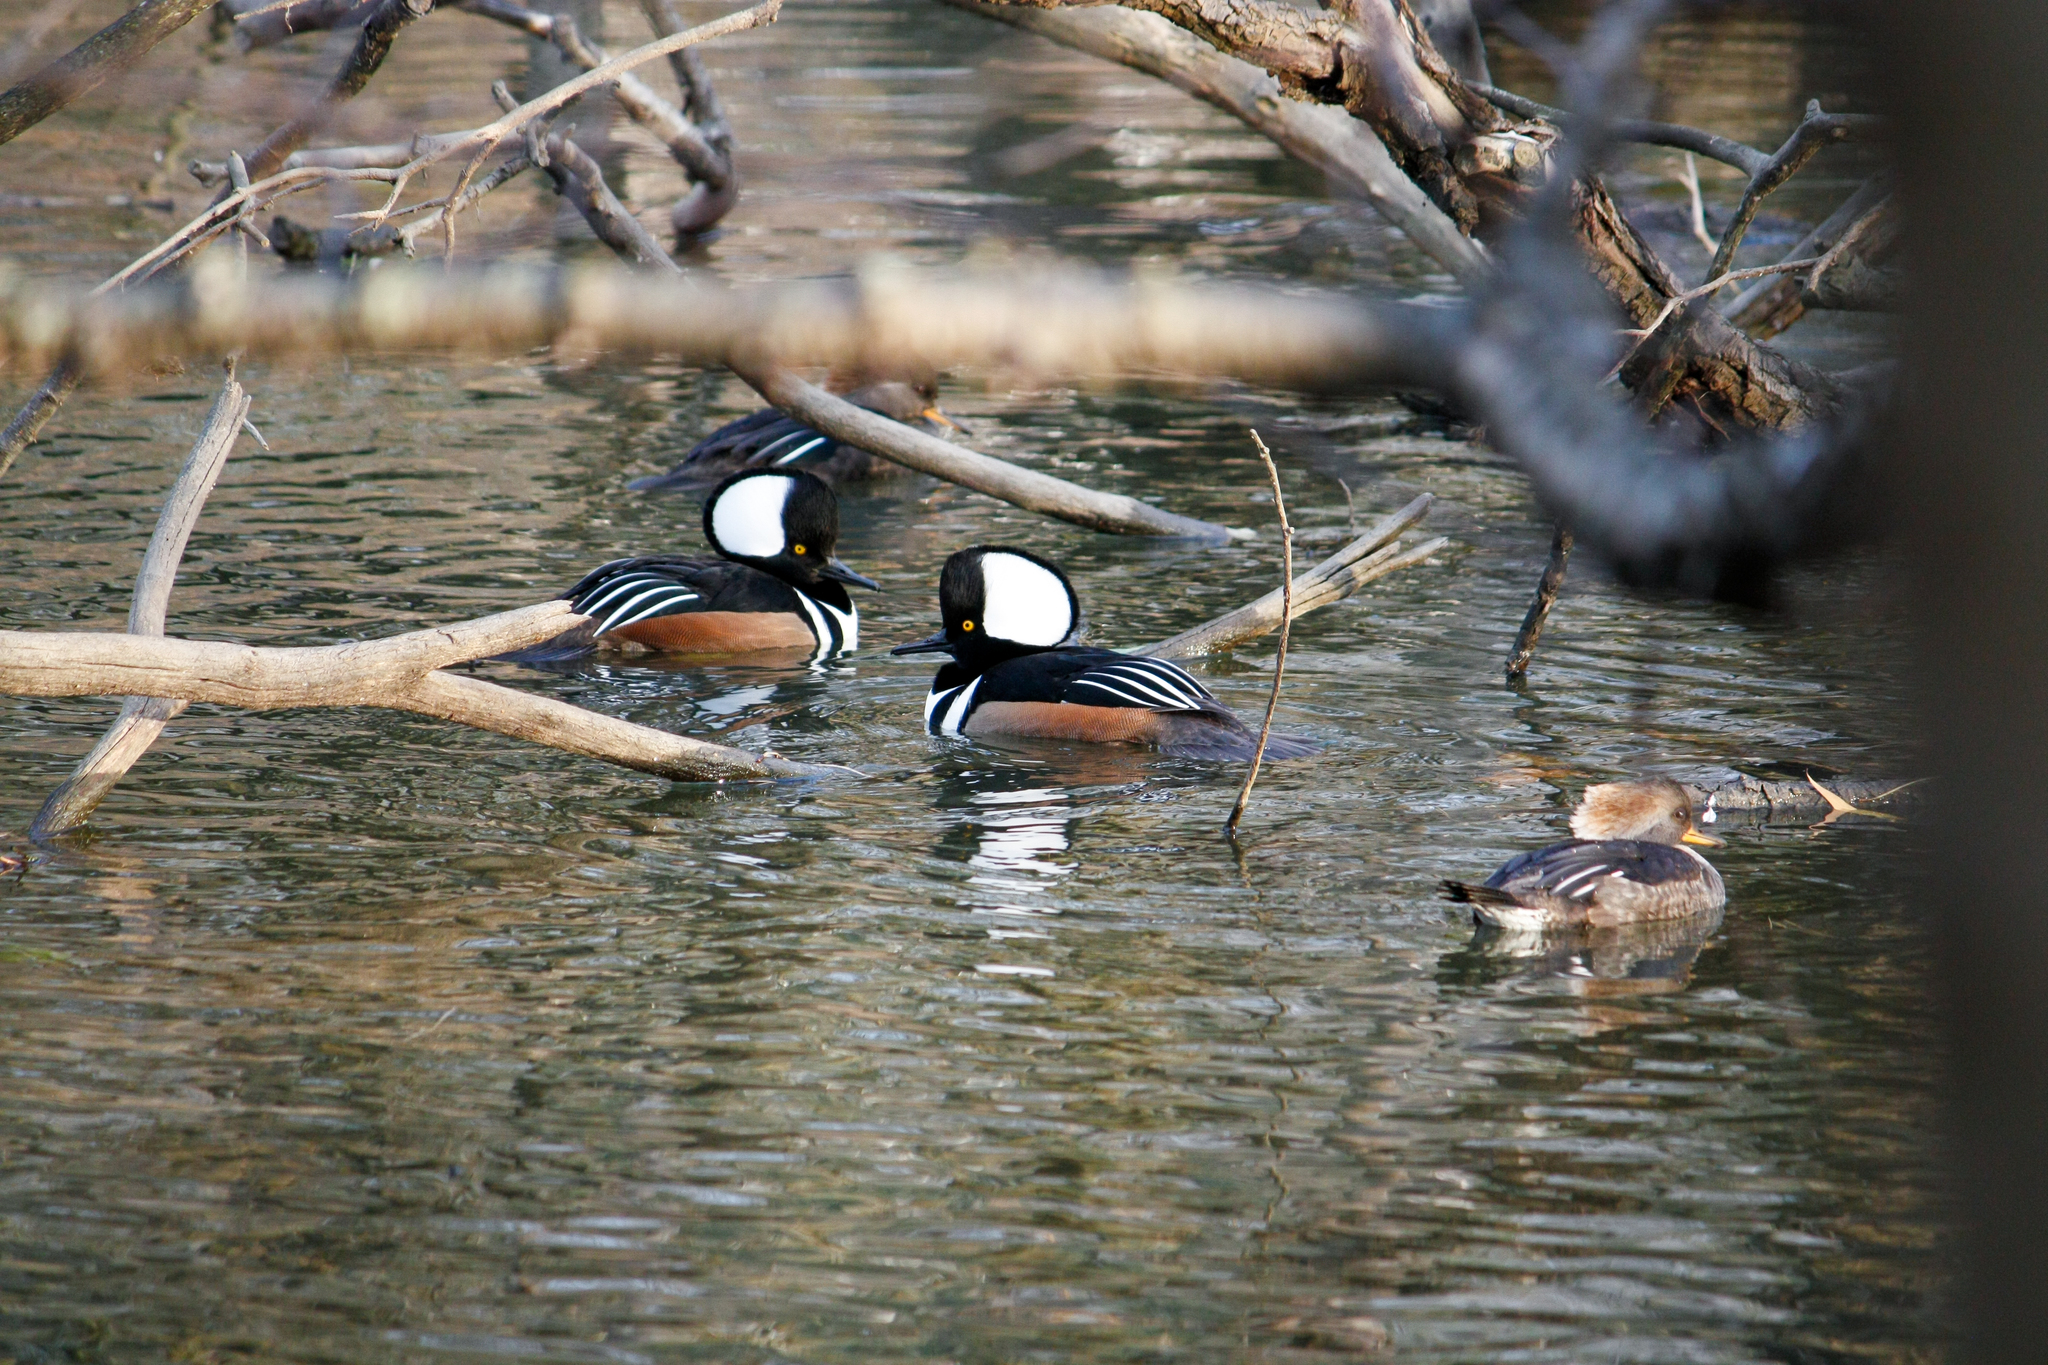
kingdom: Animalia
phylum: Chordata
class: Aves
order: Anseriformes
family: Anatidae
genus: Lophodytes
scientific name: Lophodytes cucullatus
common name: Hooded merganser
